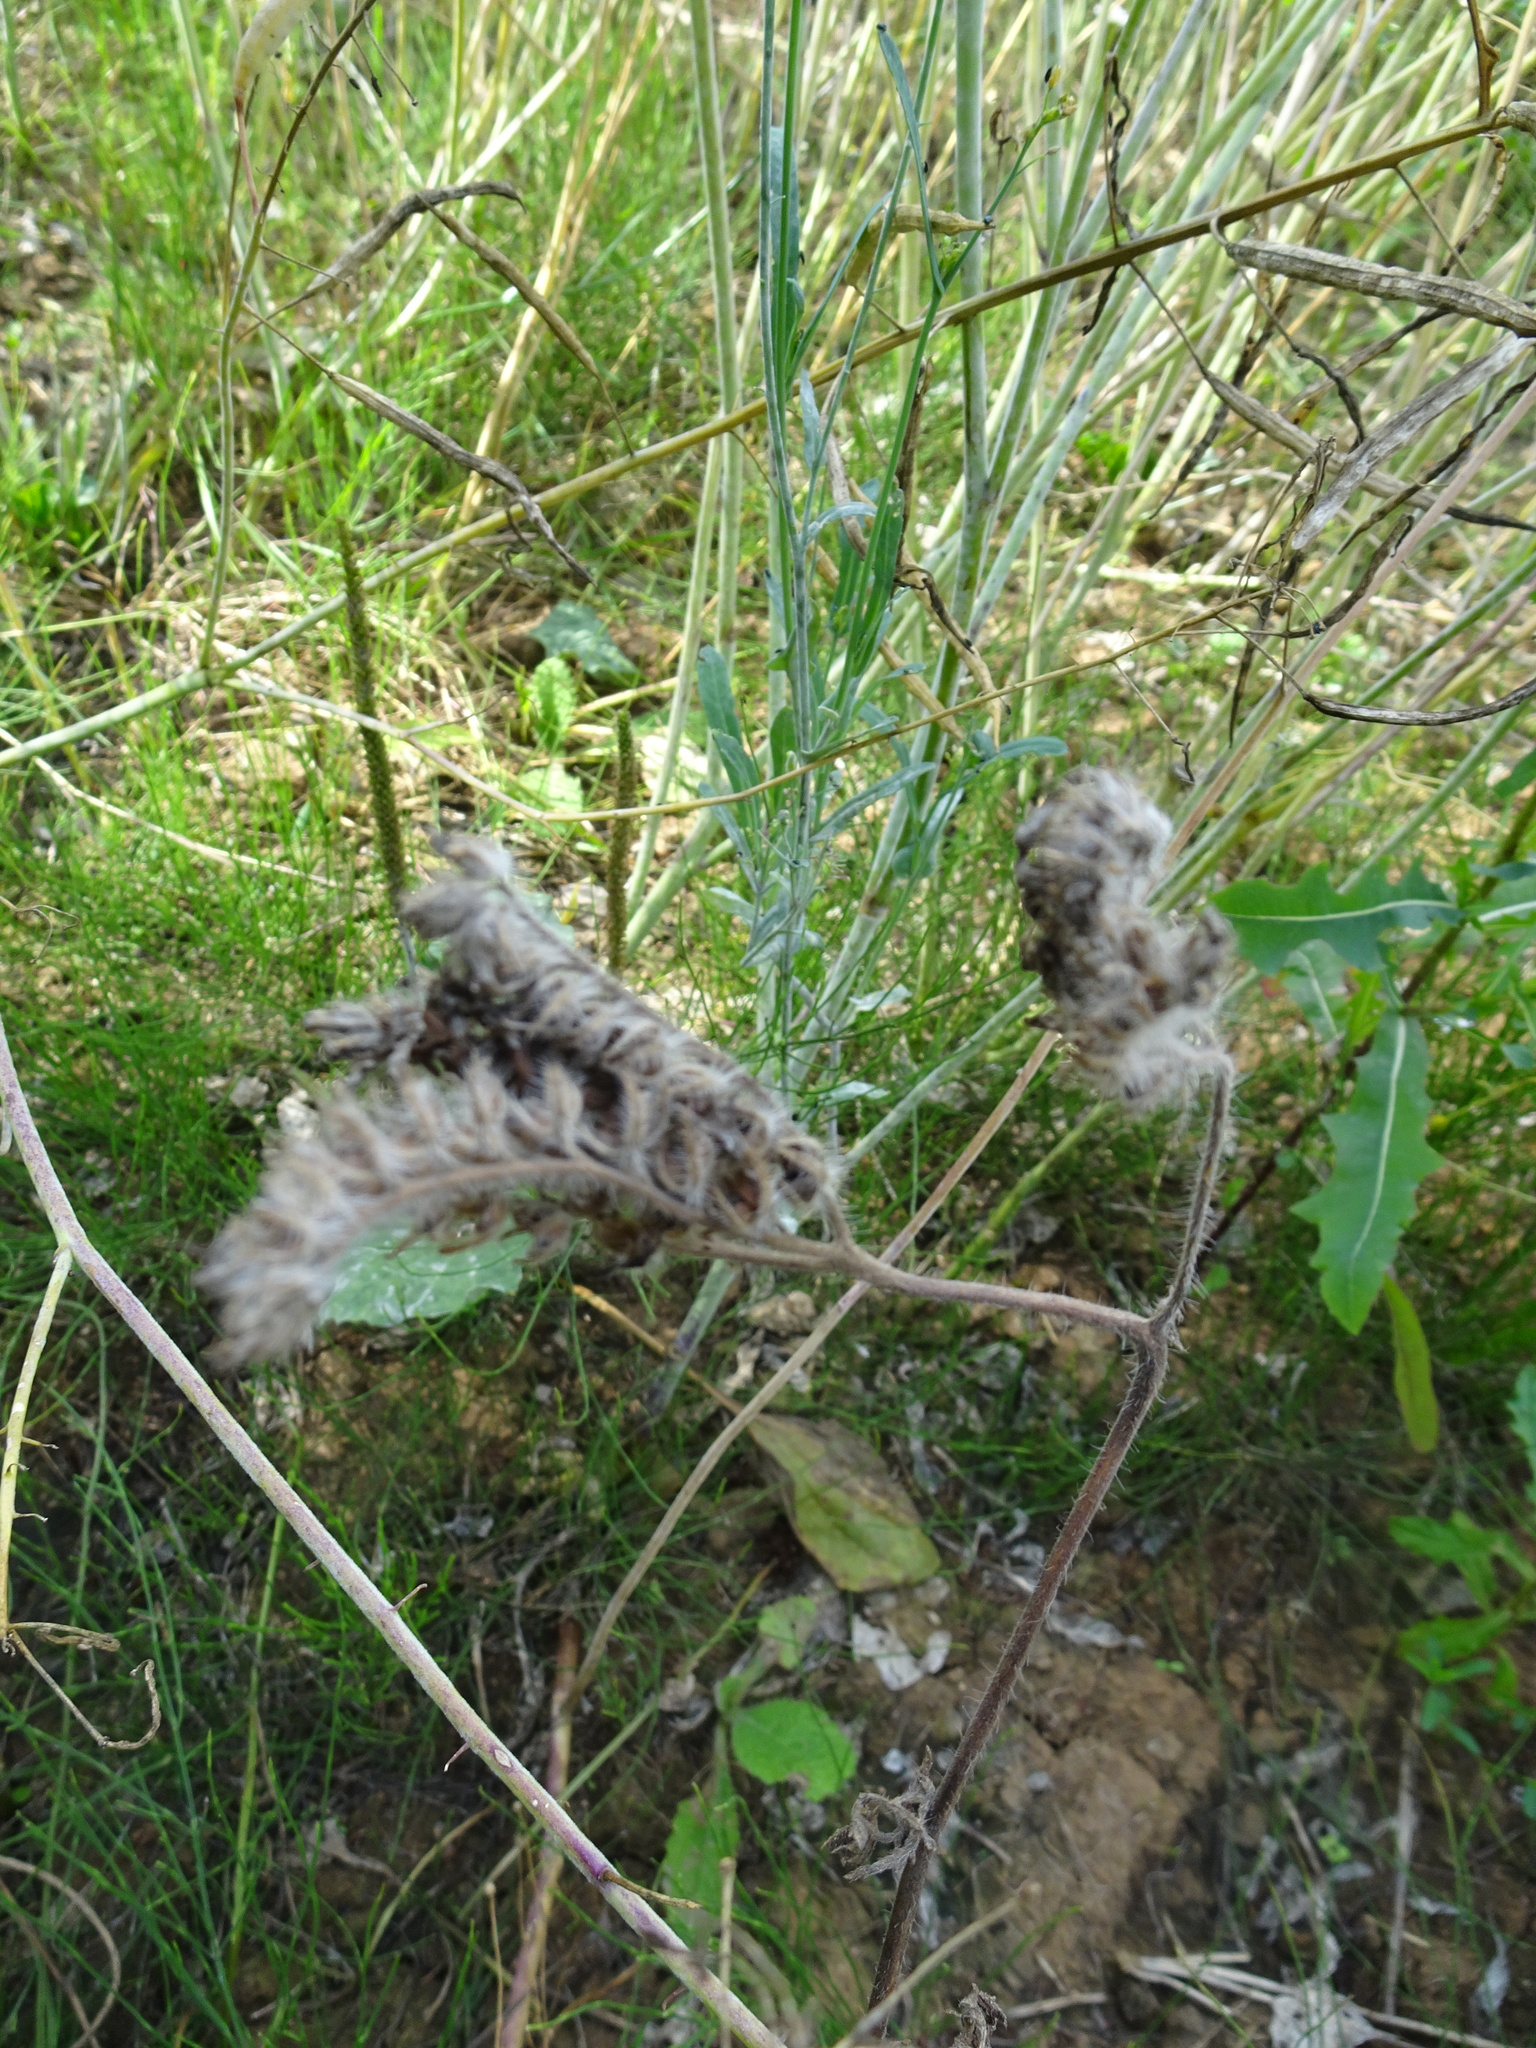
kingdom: Plantae
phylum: Tracheophyta
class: Magnoliopsida
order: Boraginales
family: Hydrophyllaceae
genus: Phacelia
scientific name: Phacelia tanacetifolia
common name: Phacelia
